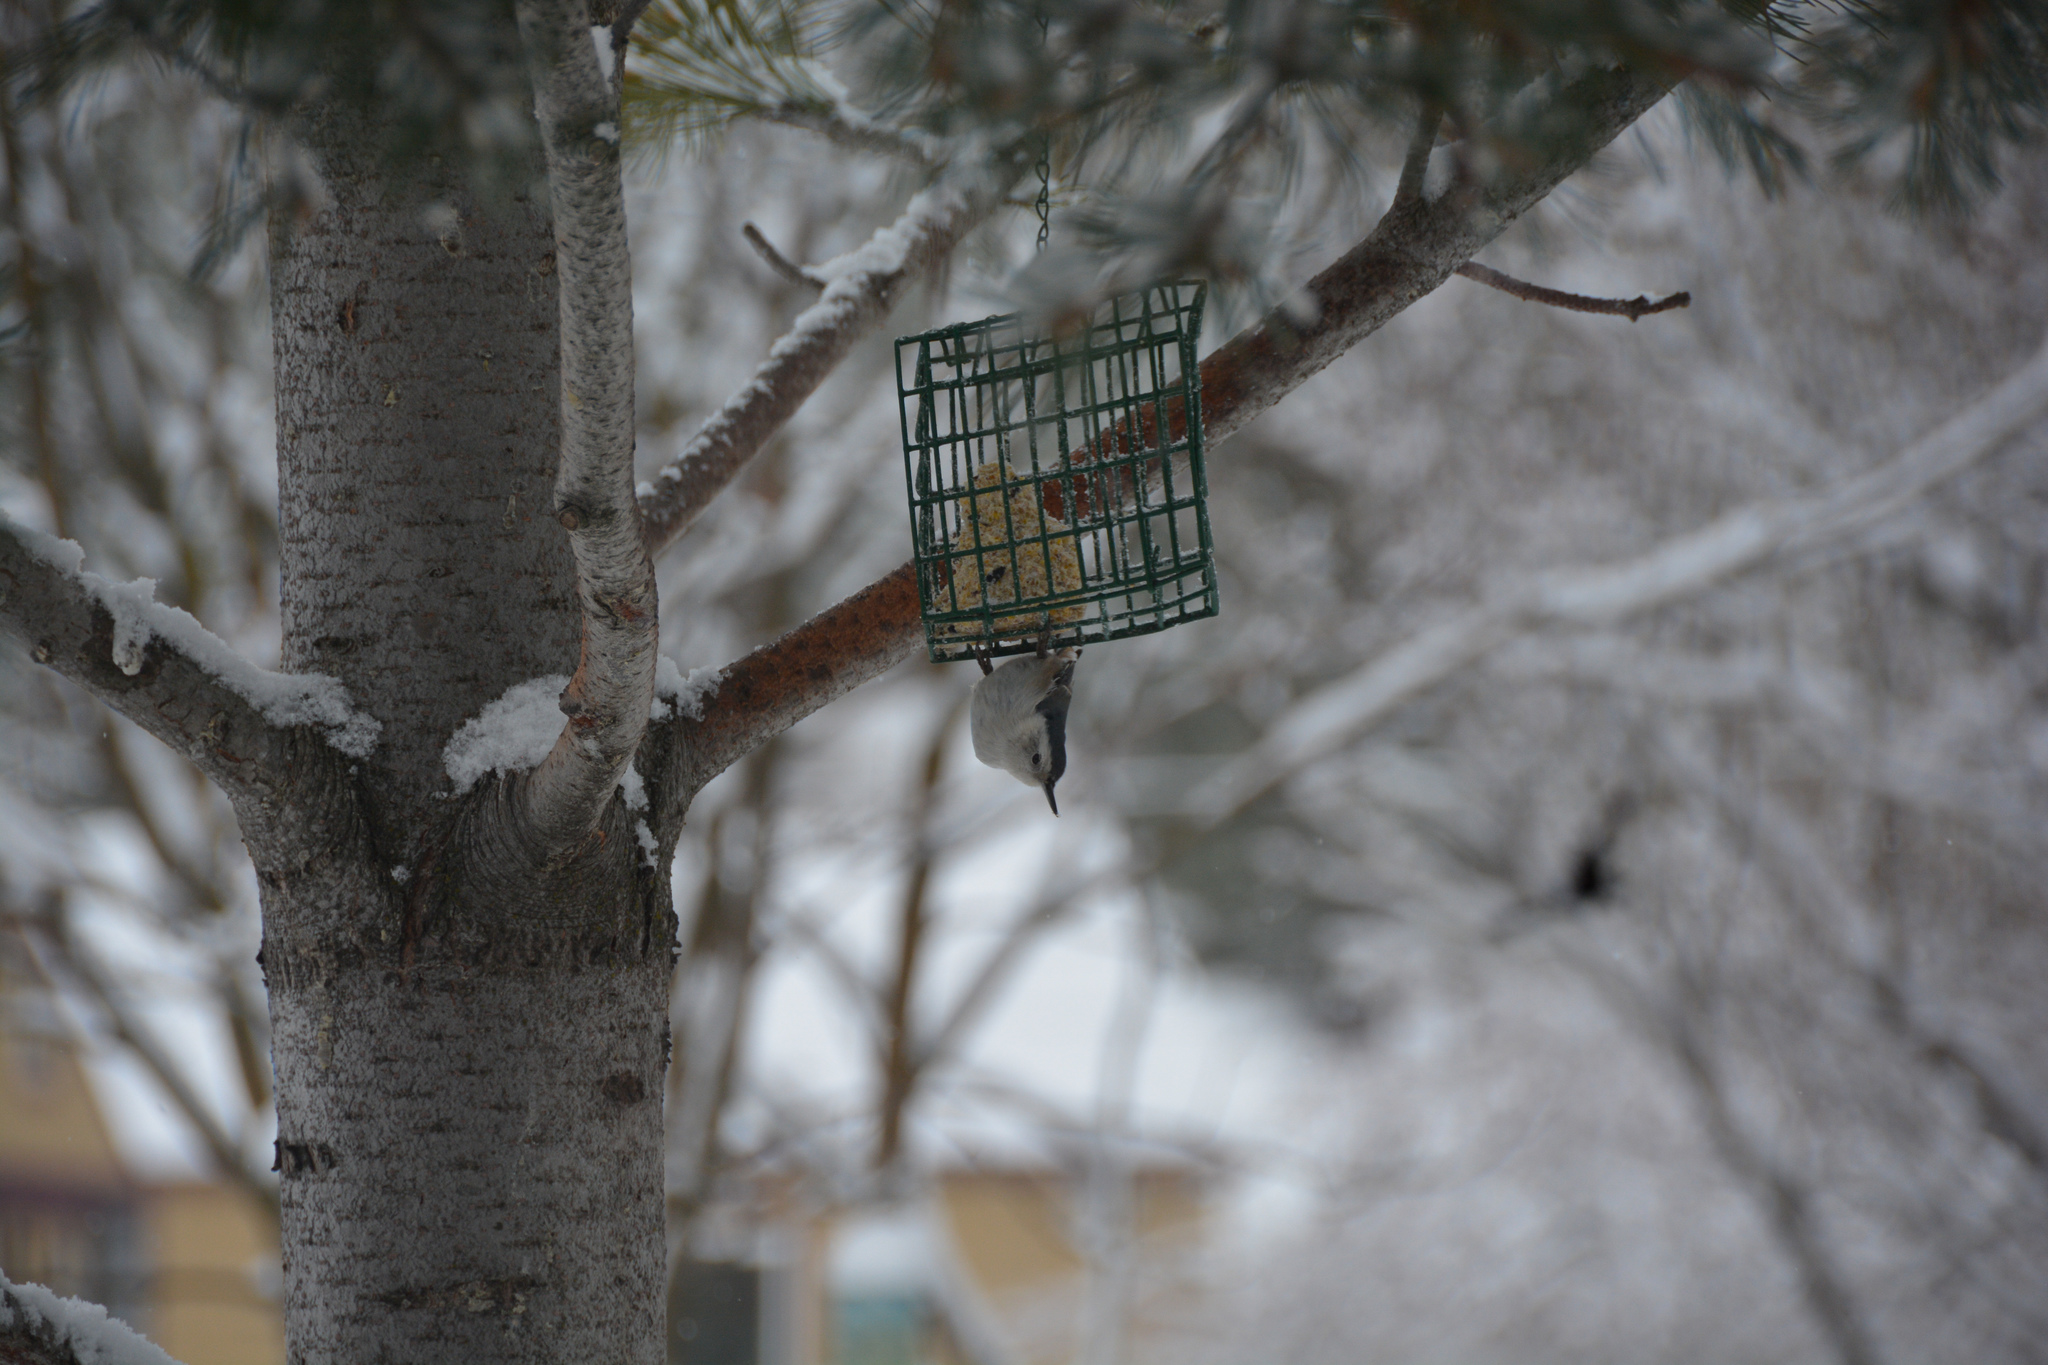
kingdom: Animalia
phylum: Chordata
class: Aves
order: Passeriformes
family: Sittidae
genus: Sitta
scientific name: Sitta carolinensis
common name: White-breasted nuthatch
